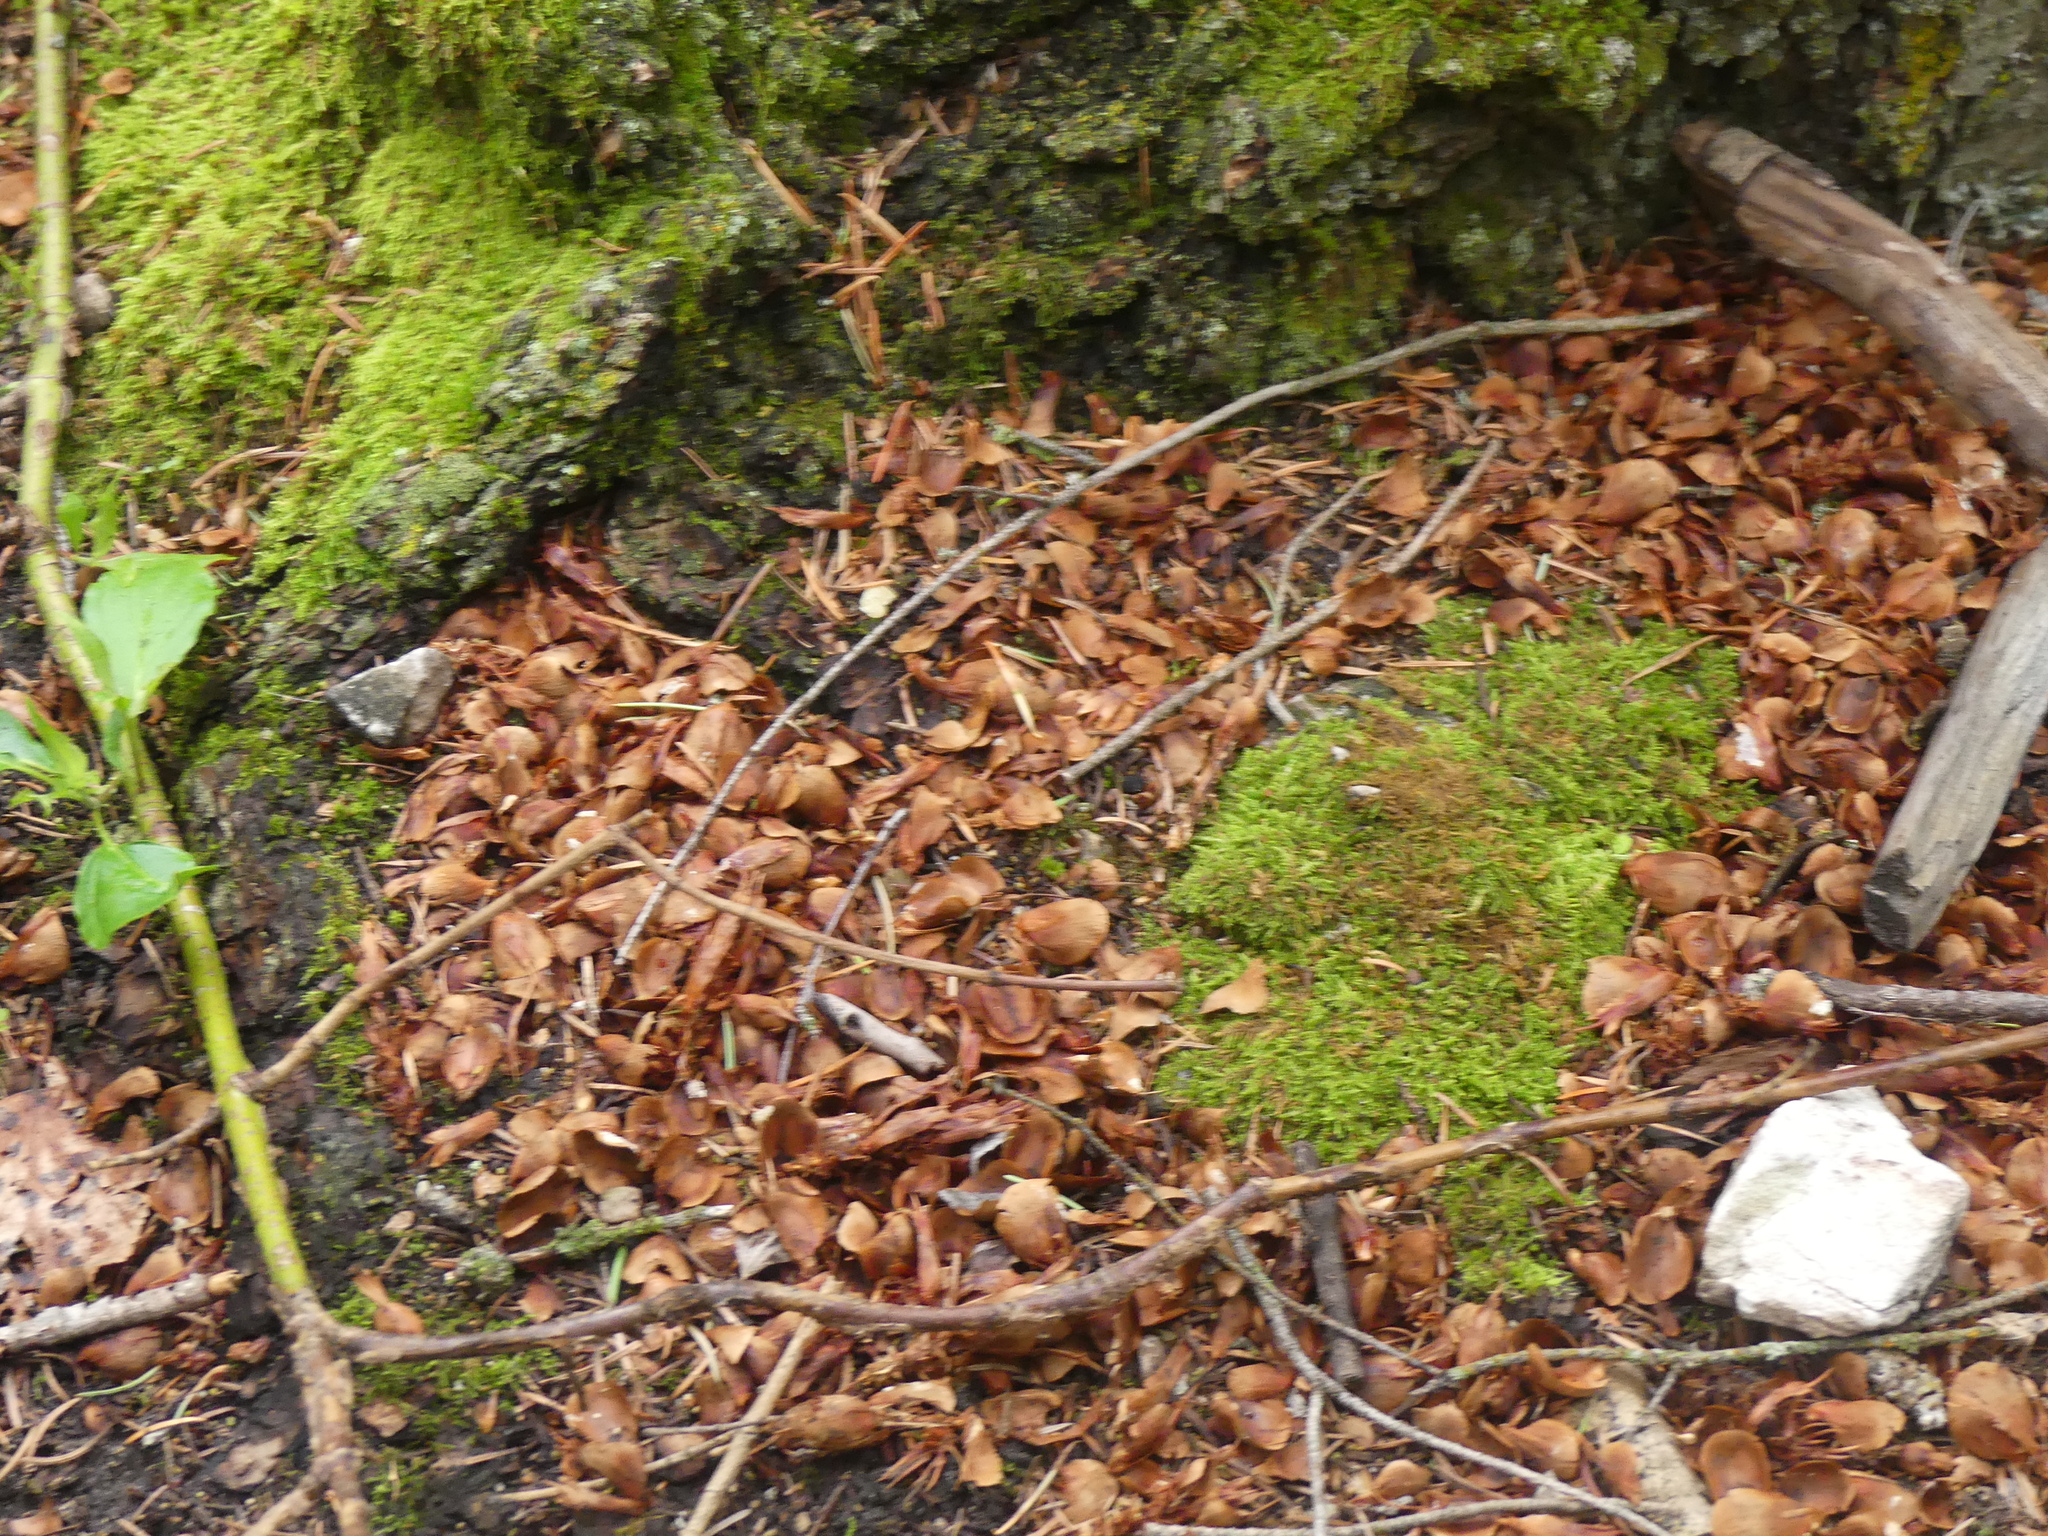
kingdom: Animalia
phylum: Chordata
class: Mammalia
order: Rodentia
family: Sciuridae
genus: Tamiasciurus
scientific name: Tamiasciurus hudsonicus
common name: Red squirrel
